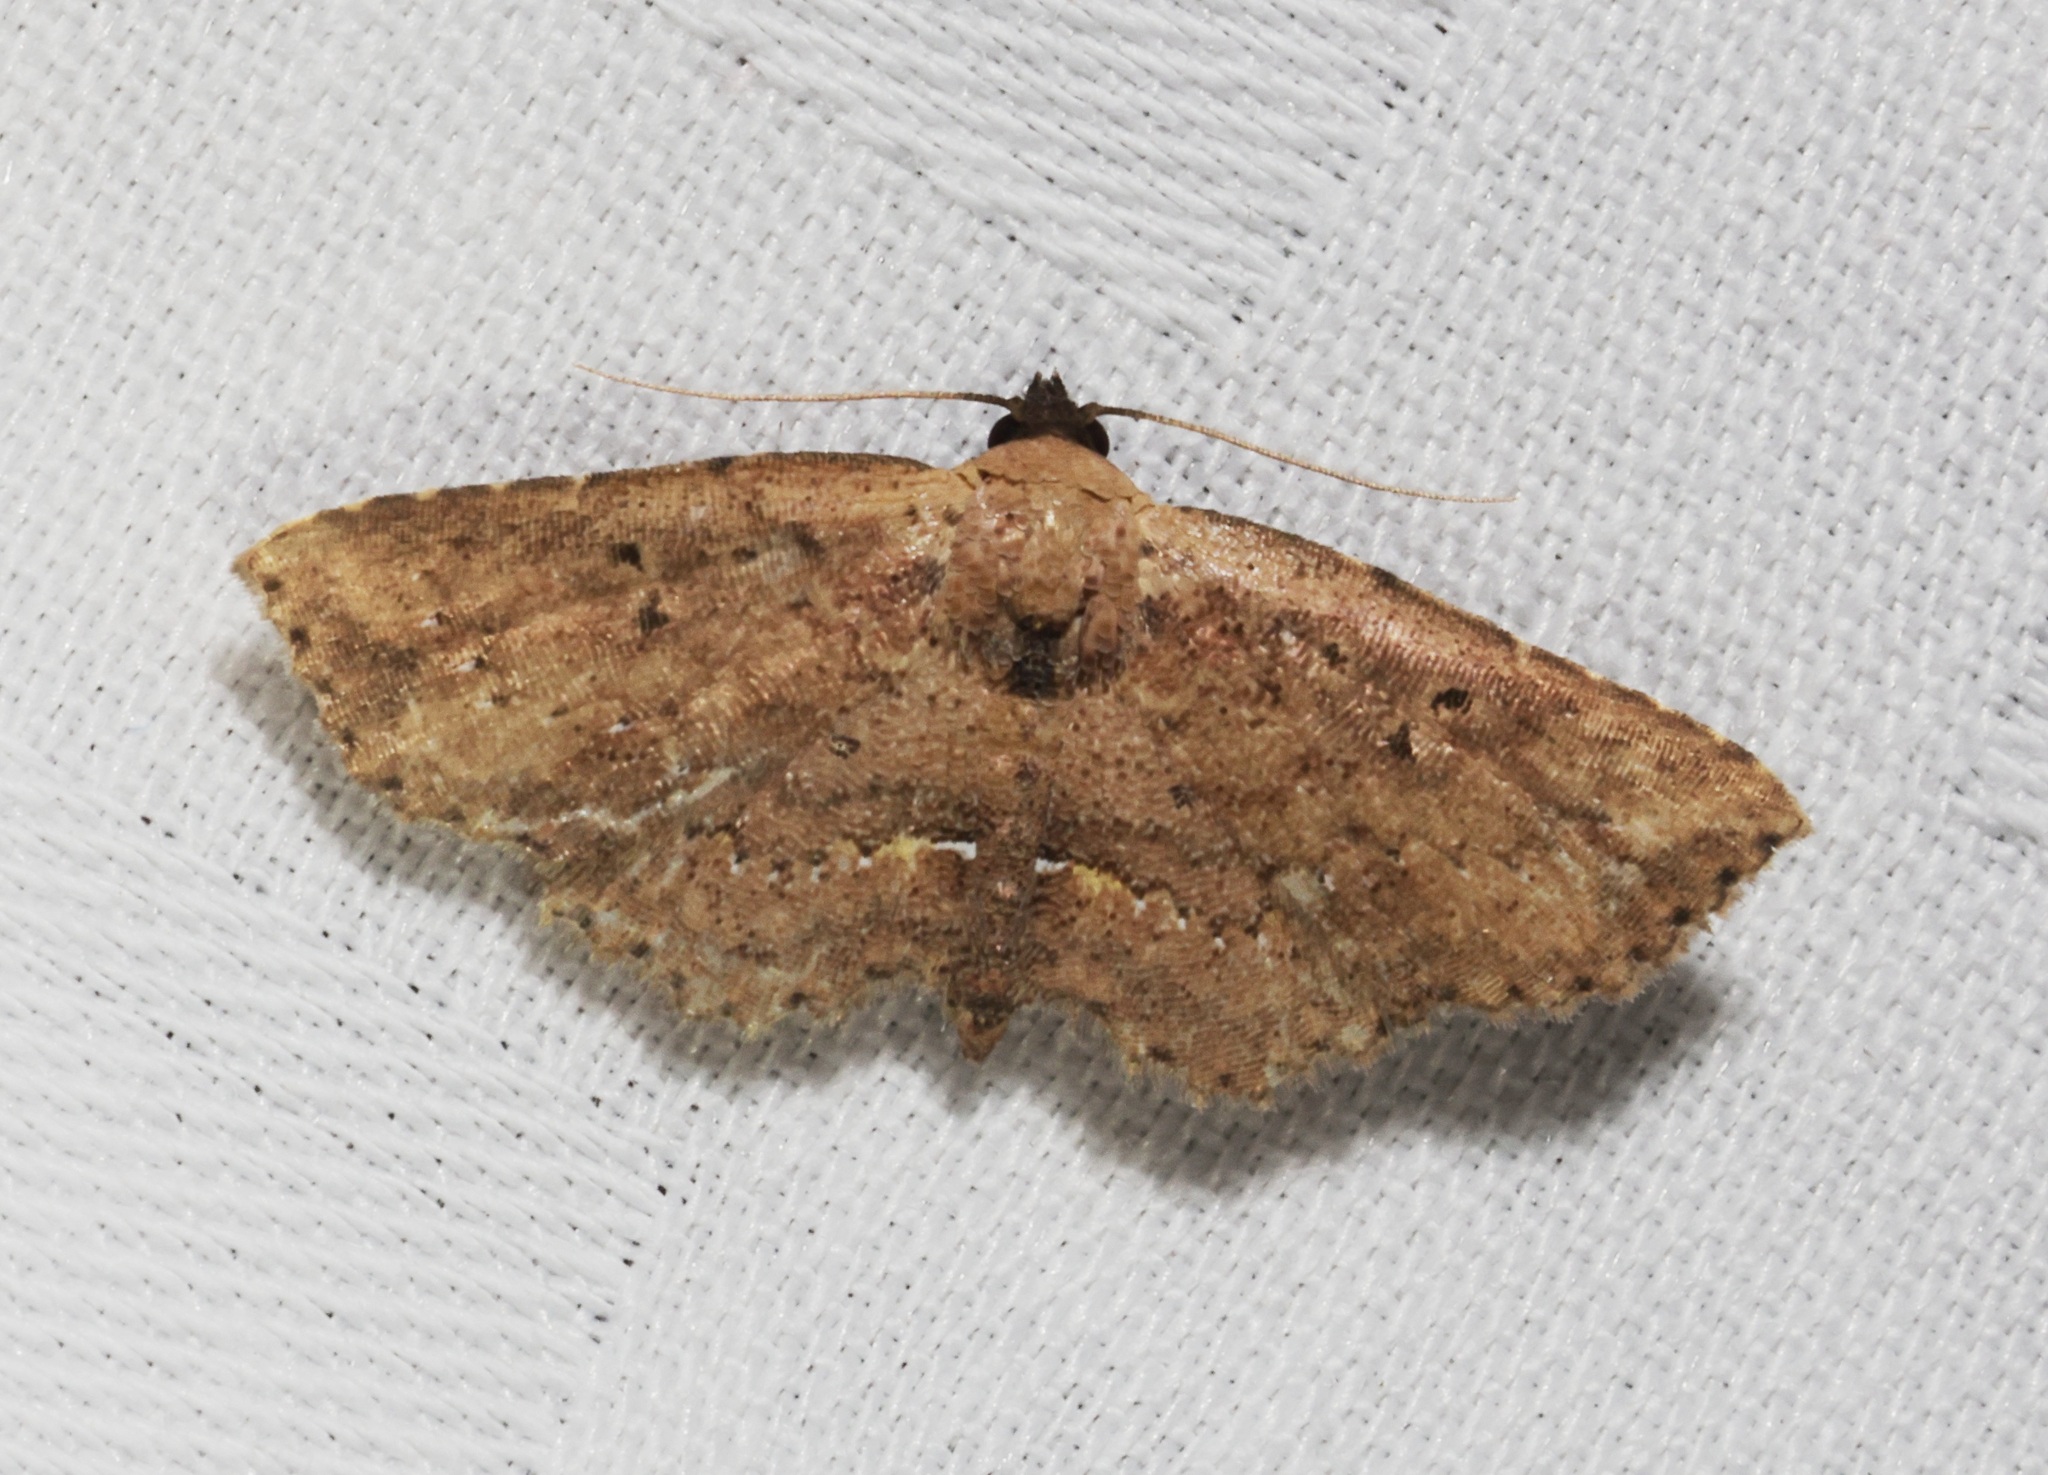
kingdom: Animalia
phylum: Arthropoda
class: Insecta
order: Lepidoptera
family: Noctuidae
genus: Cerynea
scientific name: Cerynea discontenta
